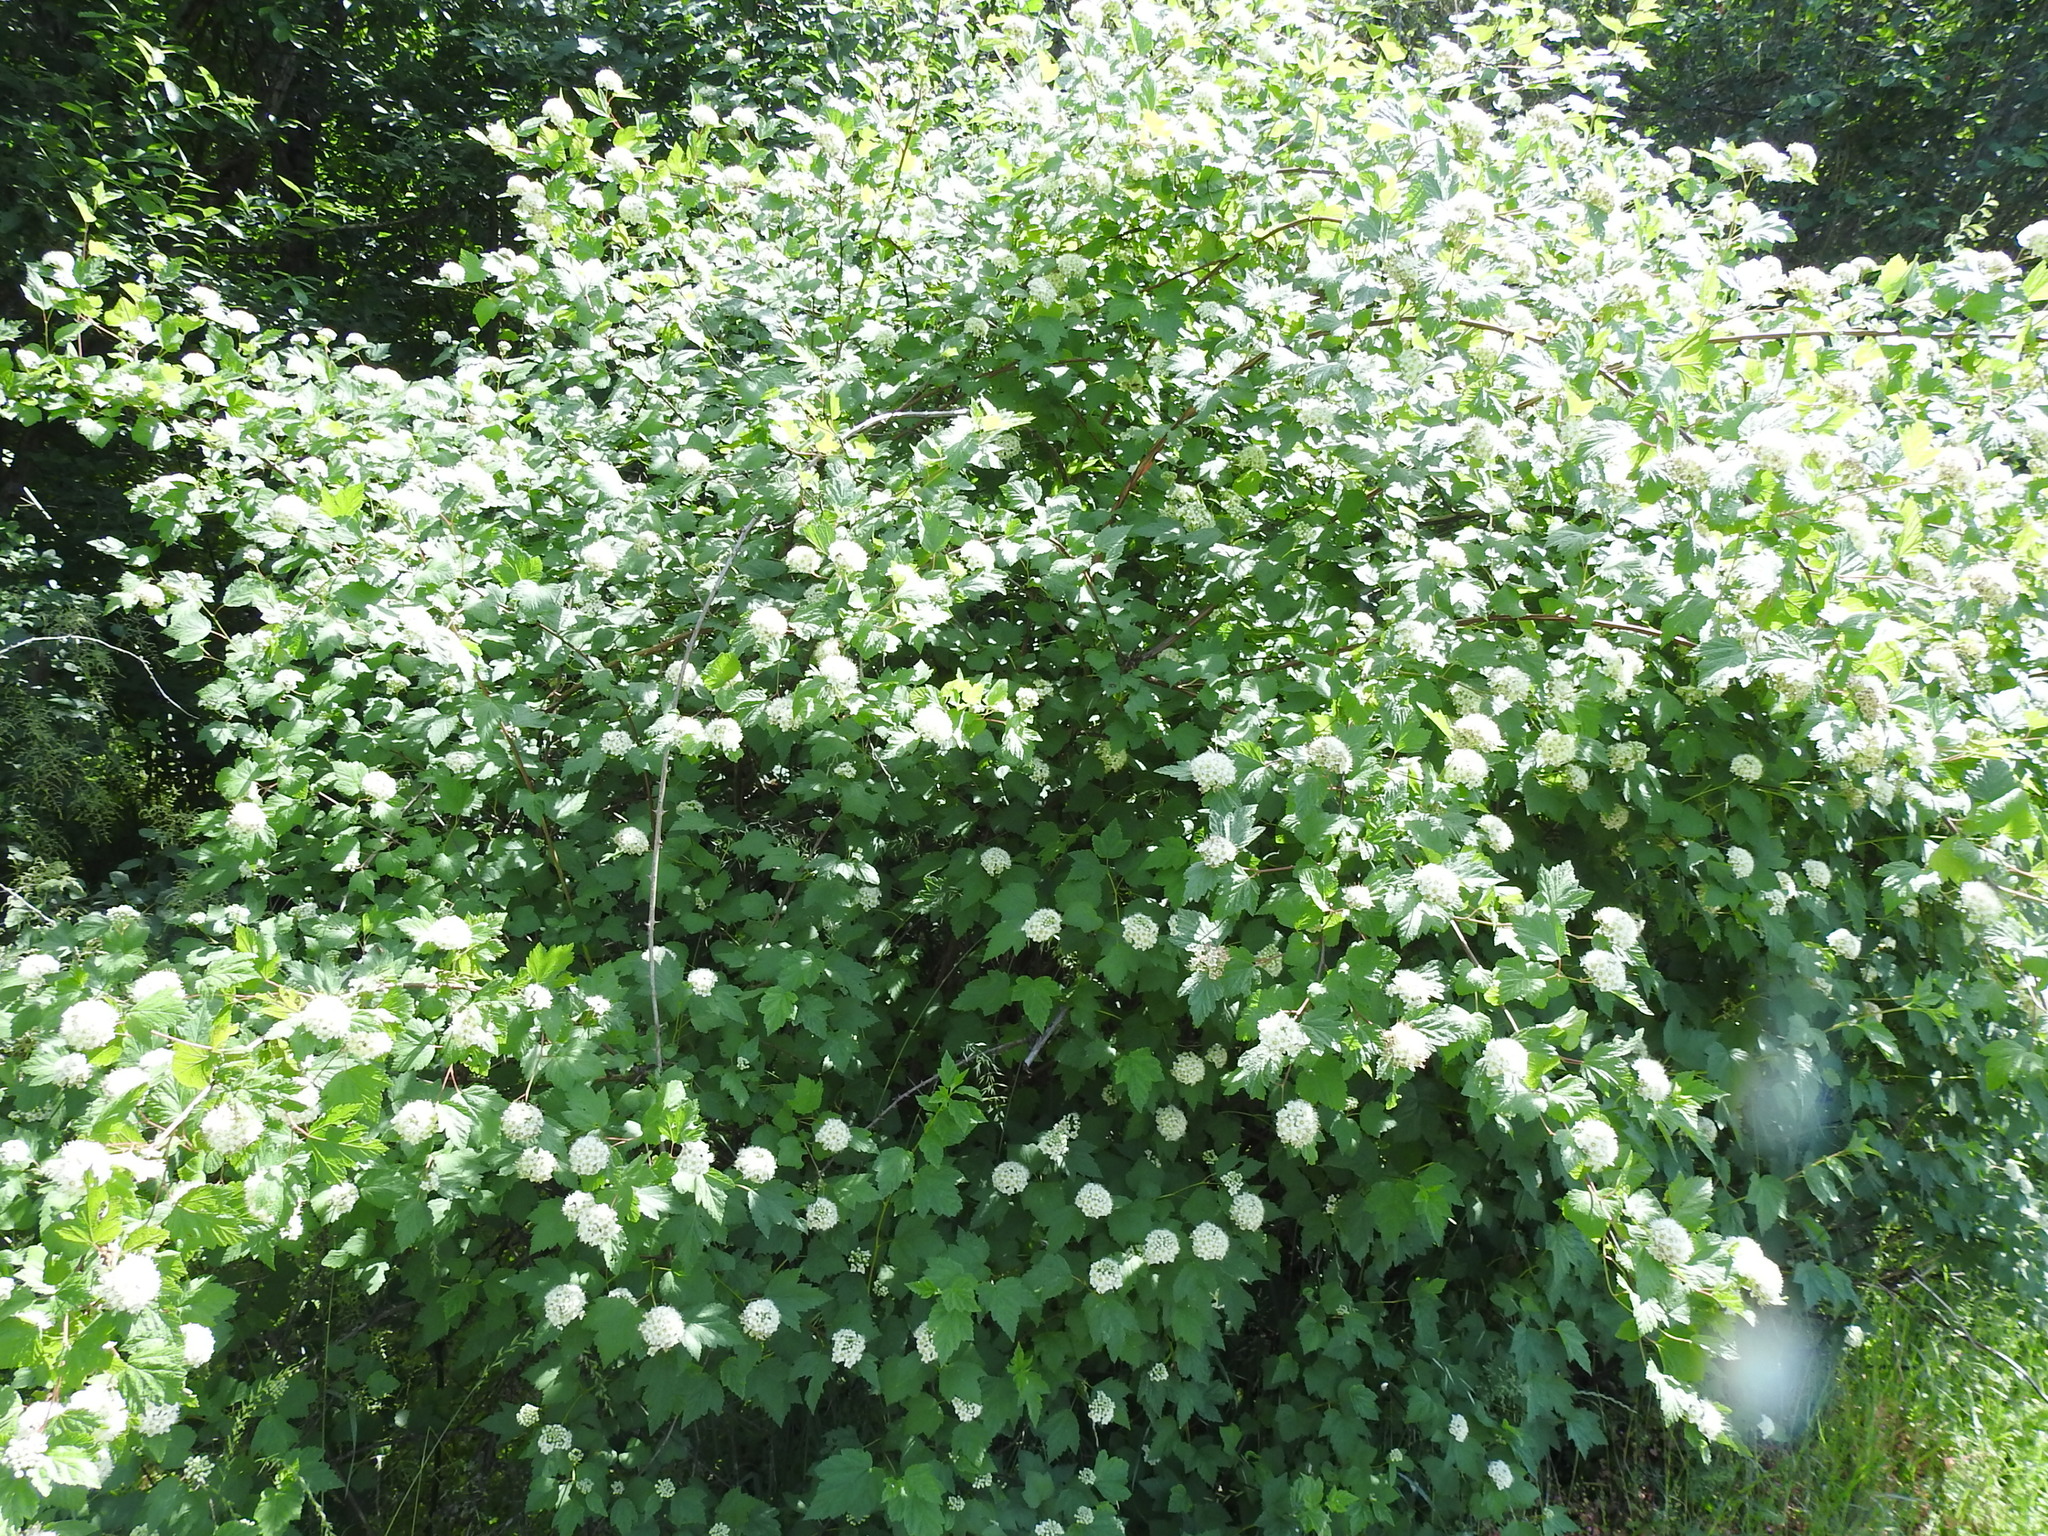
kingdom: Plantae
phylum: Tracheophyta
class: Magnoliopsida
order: Rosales
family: Rosaceae
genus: Physocarpus
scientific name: Physocarpus capitatus
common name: Pacific ninebark
